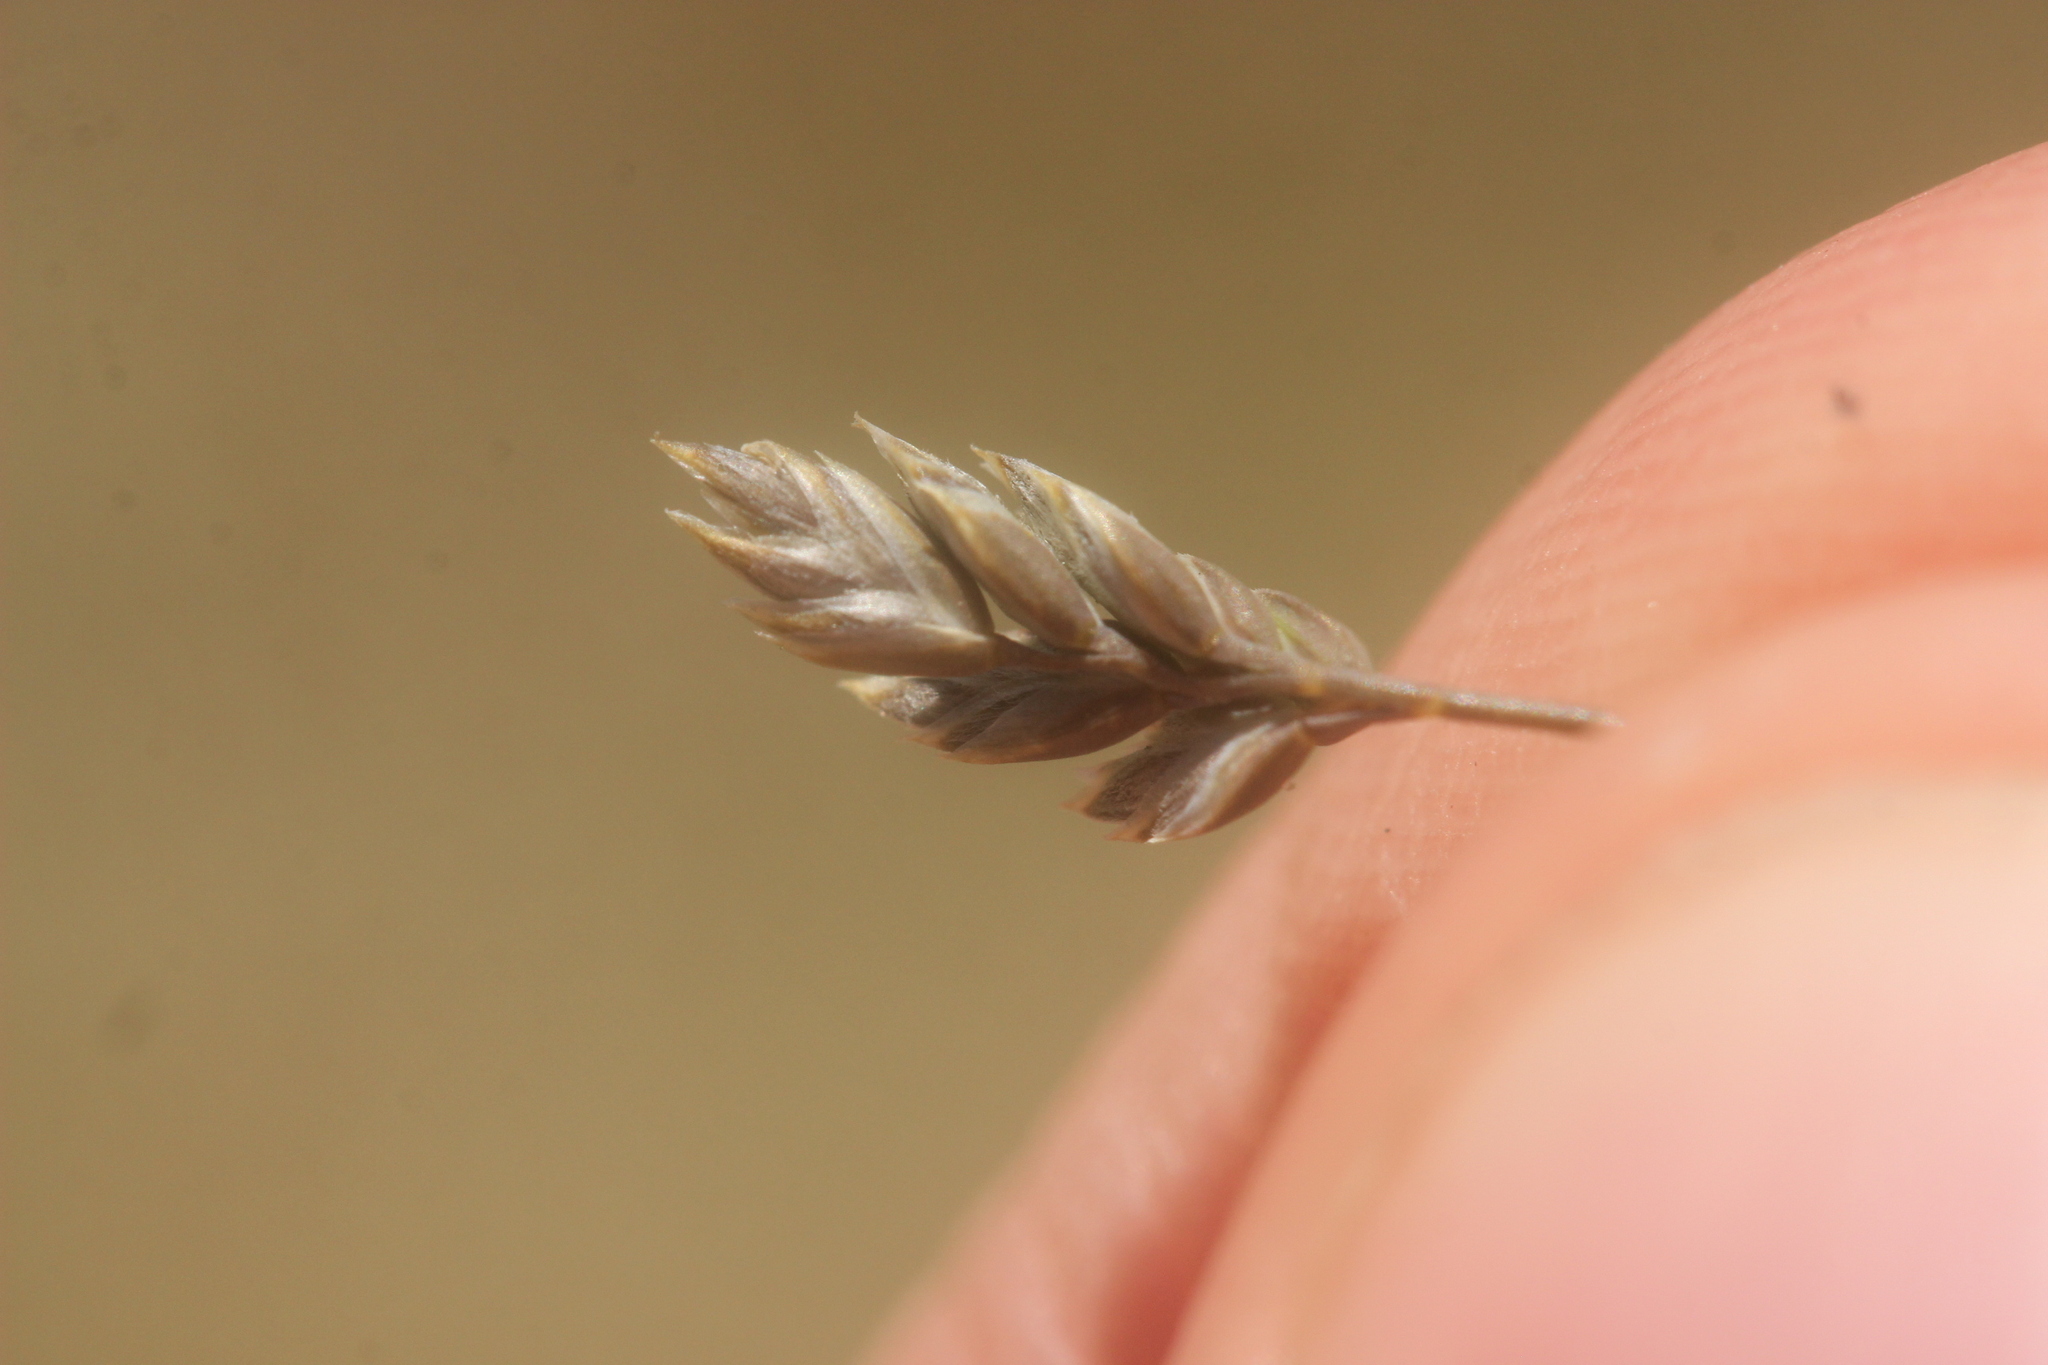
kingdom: Plantae
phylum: Tracheophyta
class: Liliopsida
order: Poales
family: Poaceae
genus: Poa
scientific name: Poa maniototo
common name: Desert poa
